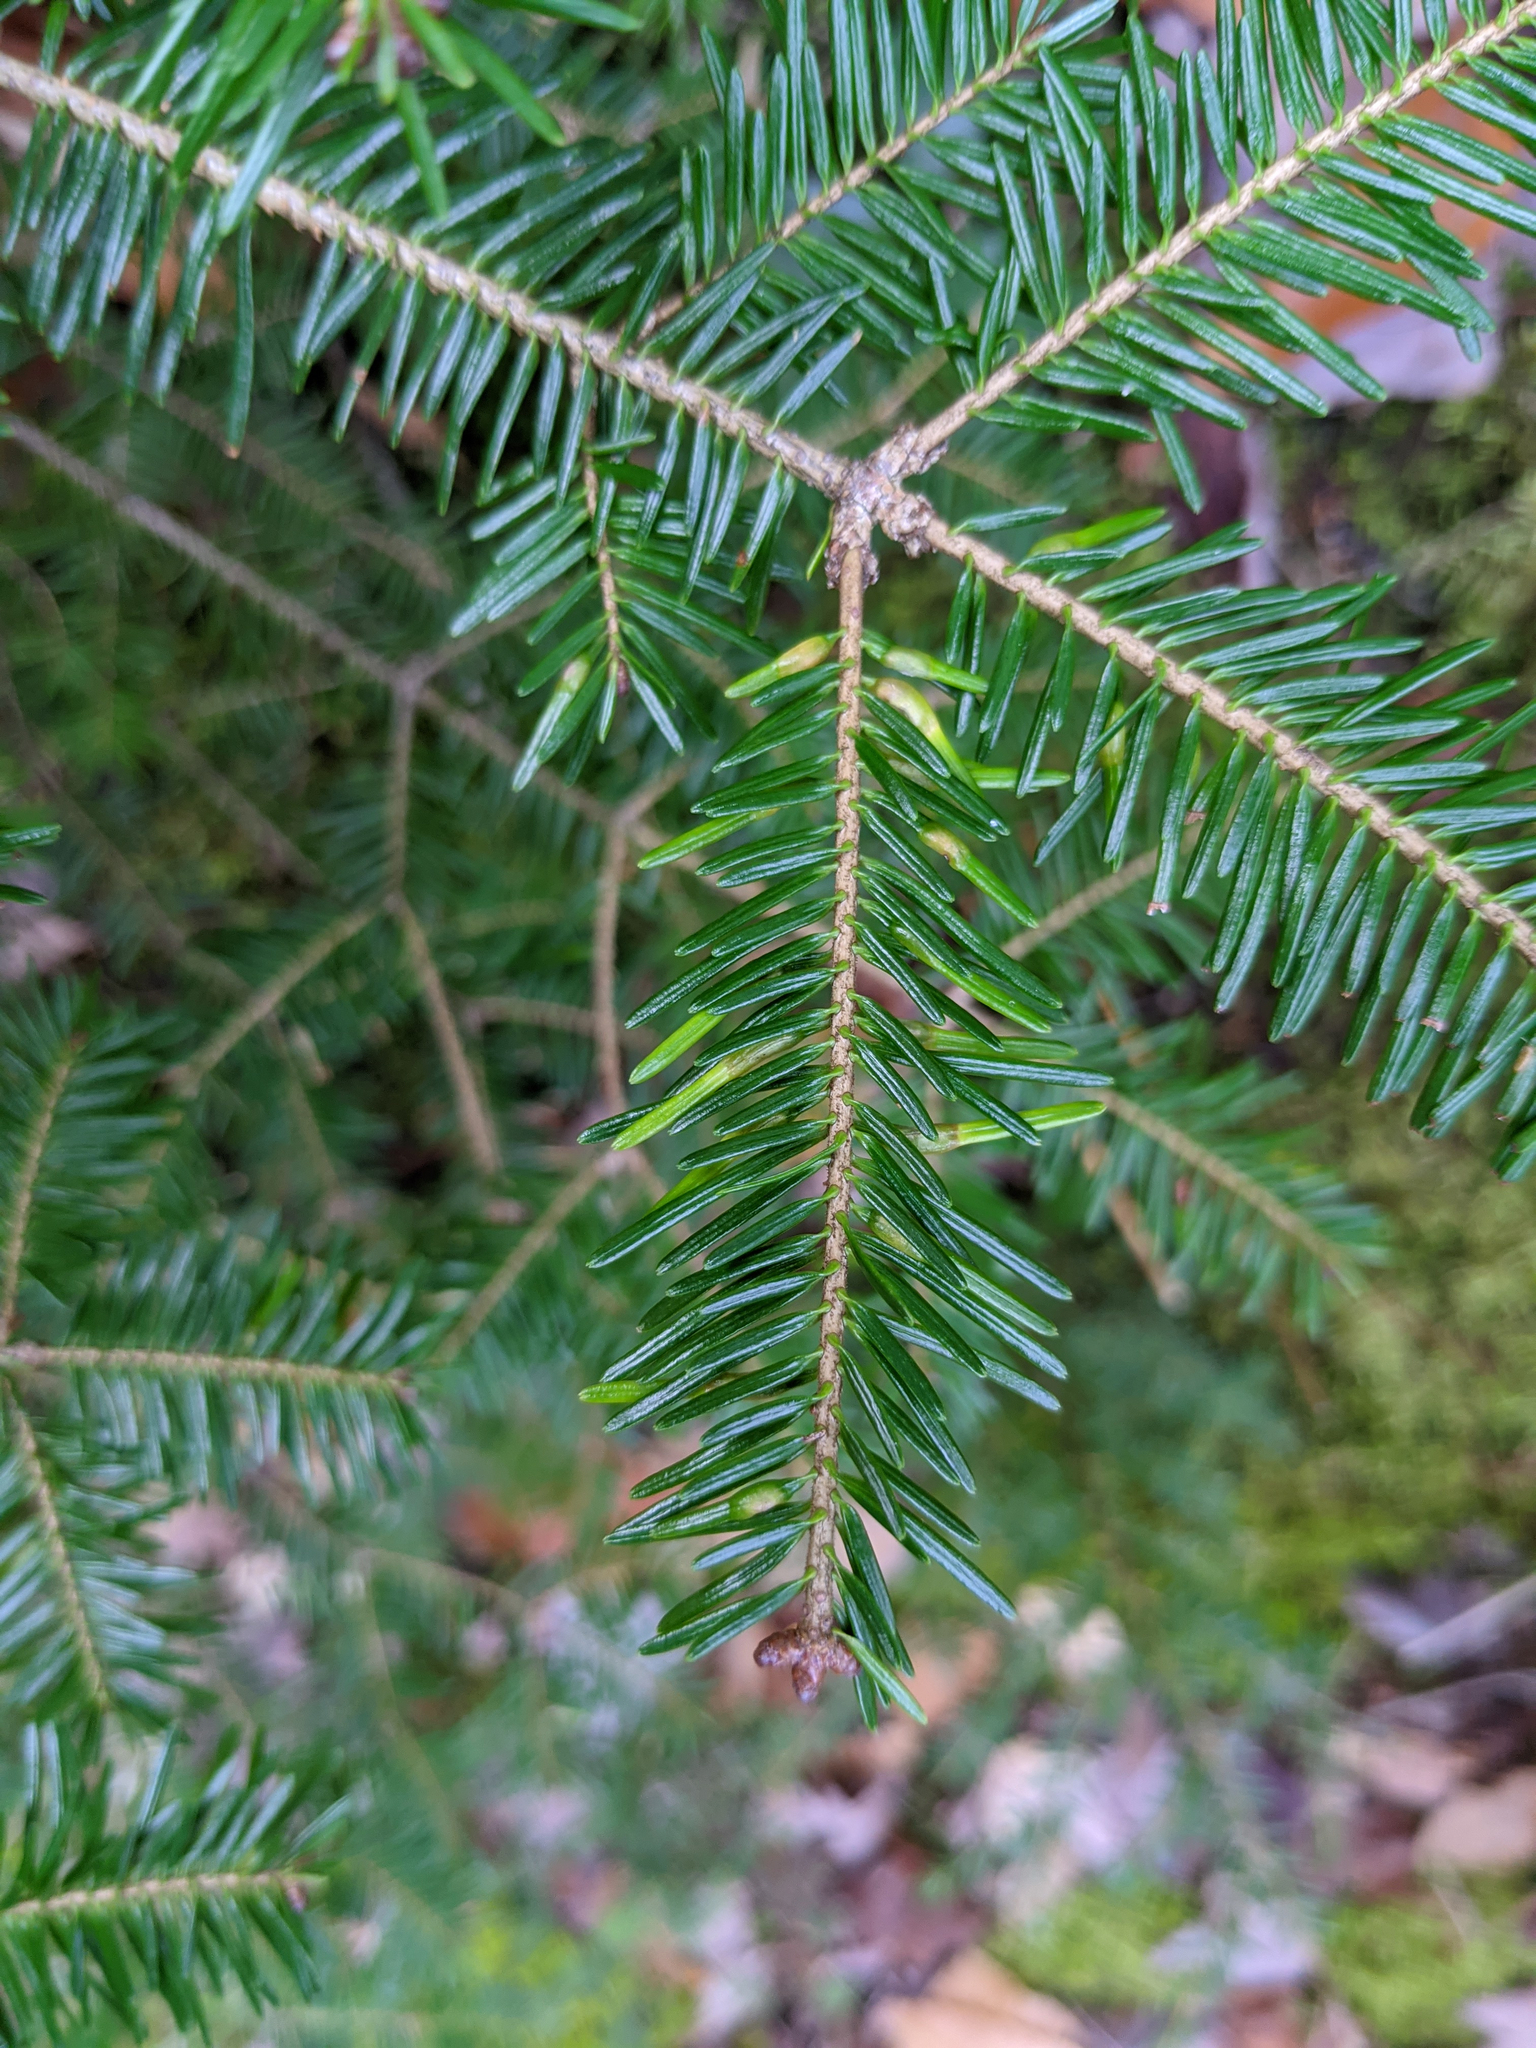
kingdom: Animalia
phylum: Arthropoda
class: Insecta
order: Diptera
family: Cecidomyiidae
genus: Paradiplosis
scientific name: Paradiplosis tumifex
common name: Gall midge
